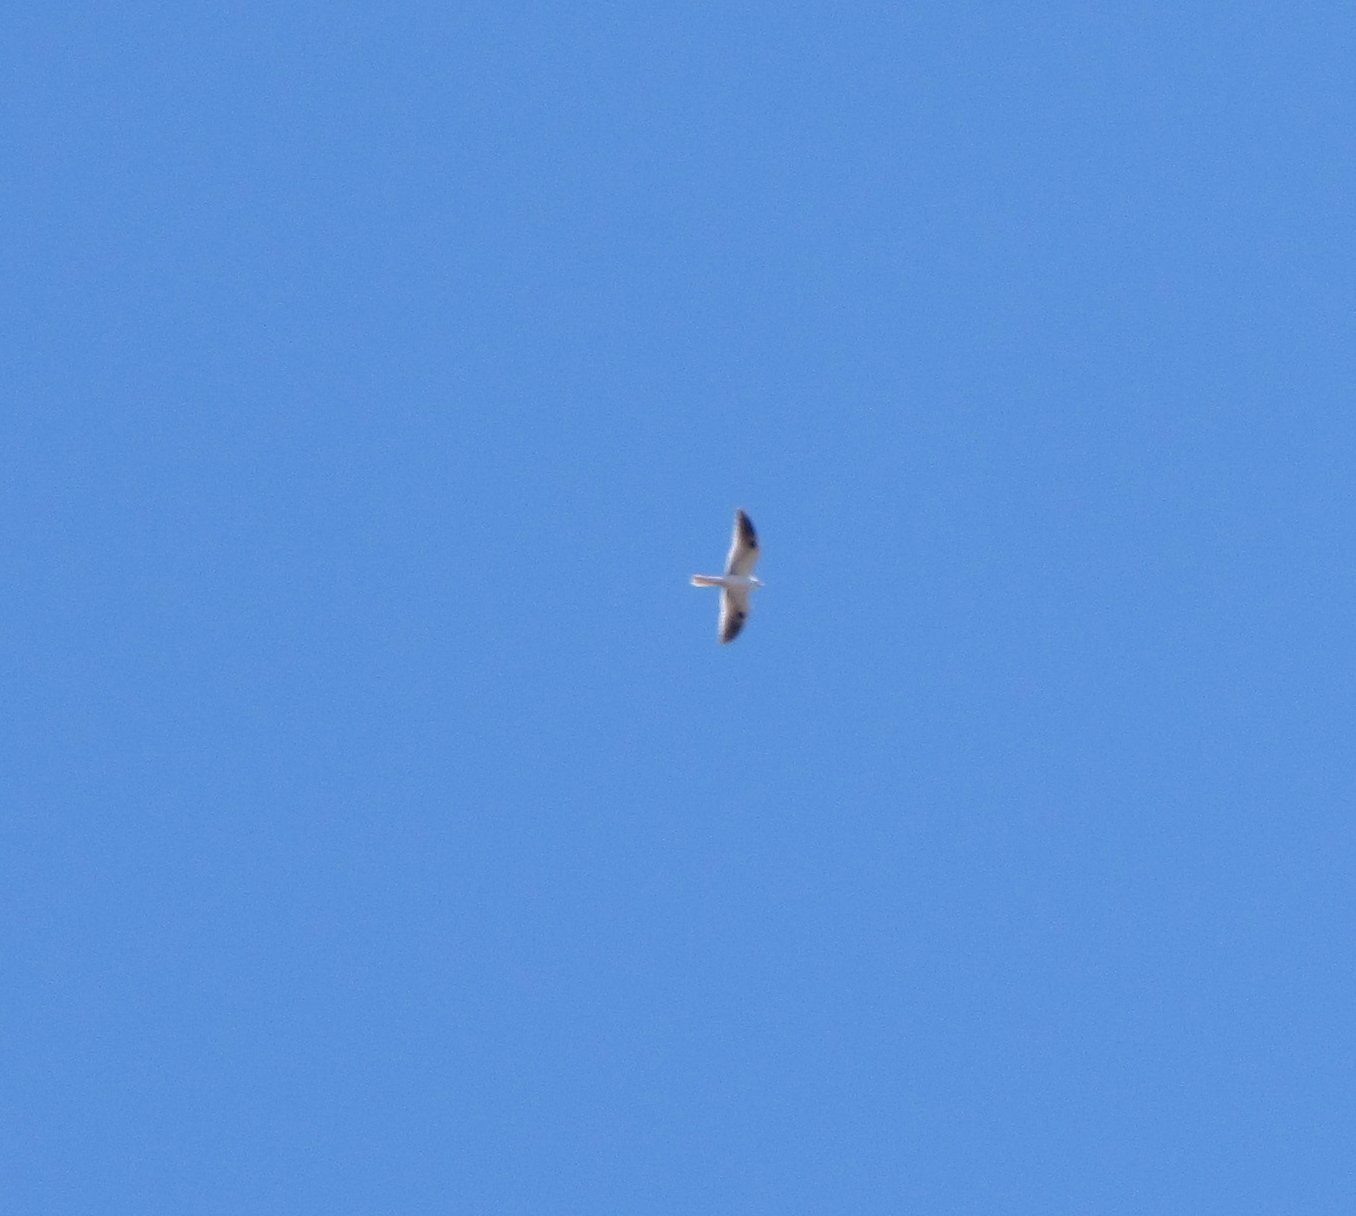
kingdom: Animalia
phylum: Chordata
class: Aves
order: Accipitriformes
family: Accipitridae
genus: Elanus
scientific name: Elanus leucurus
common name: White-tailed kite
